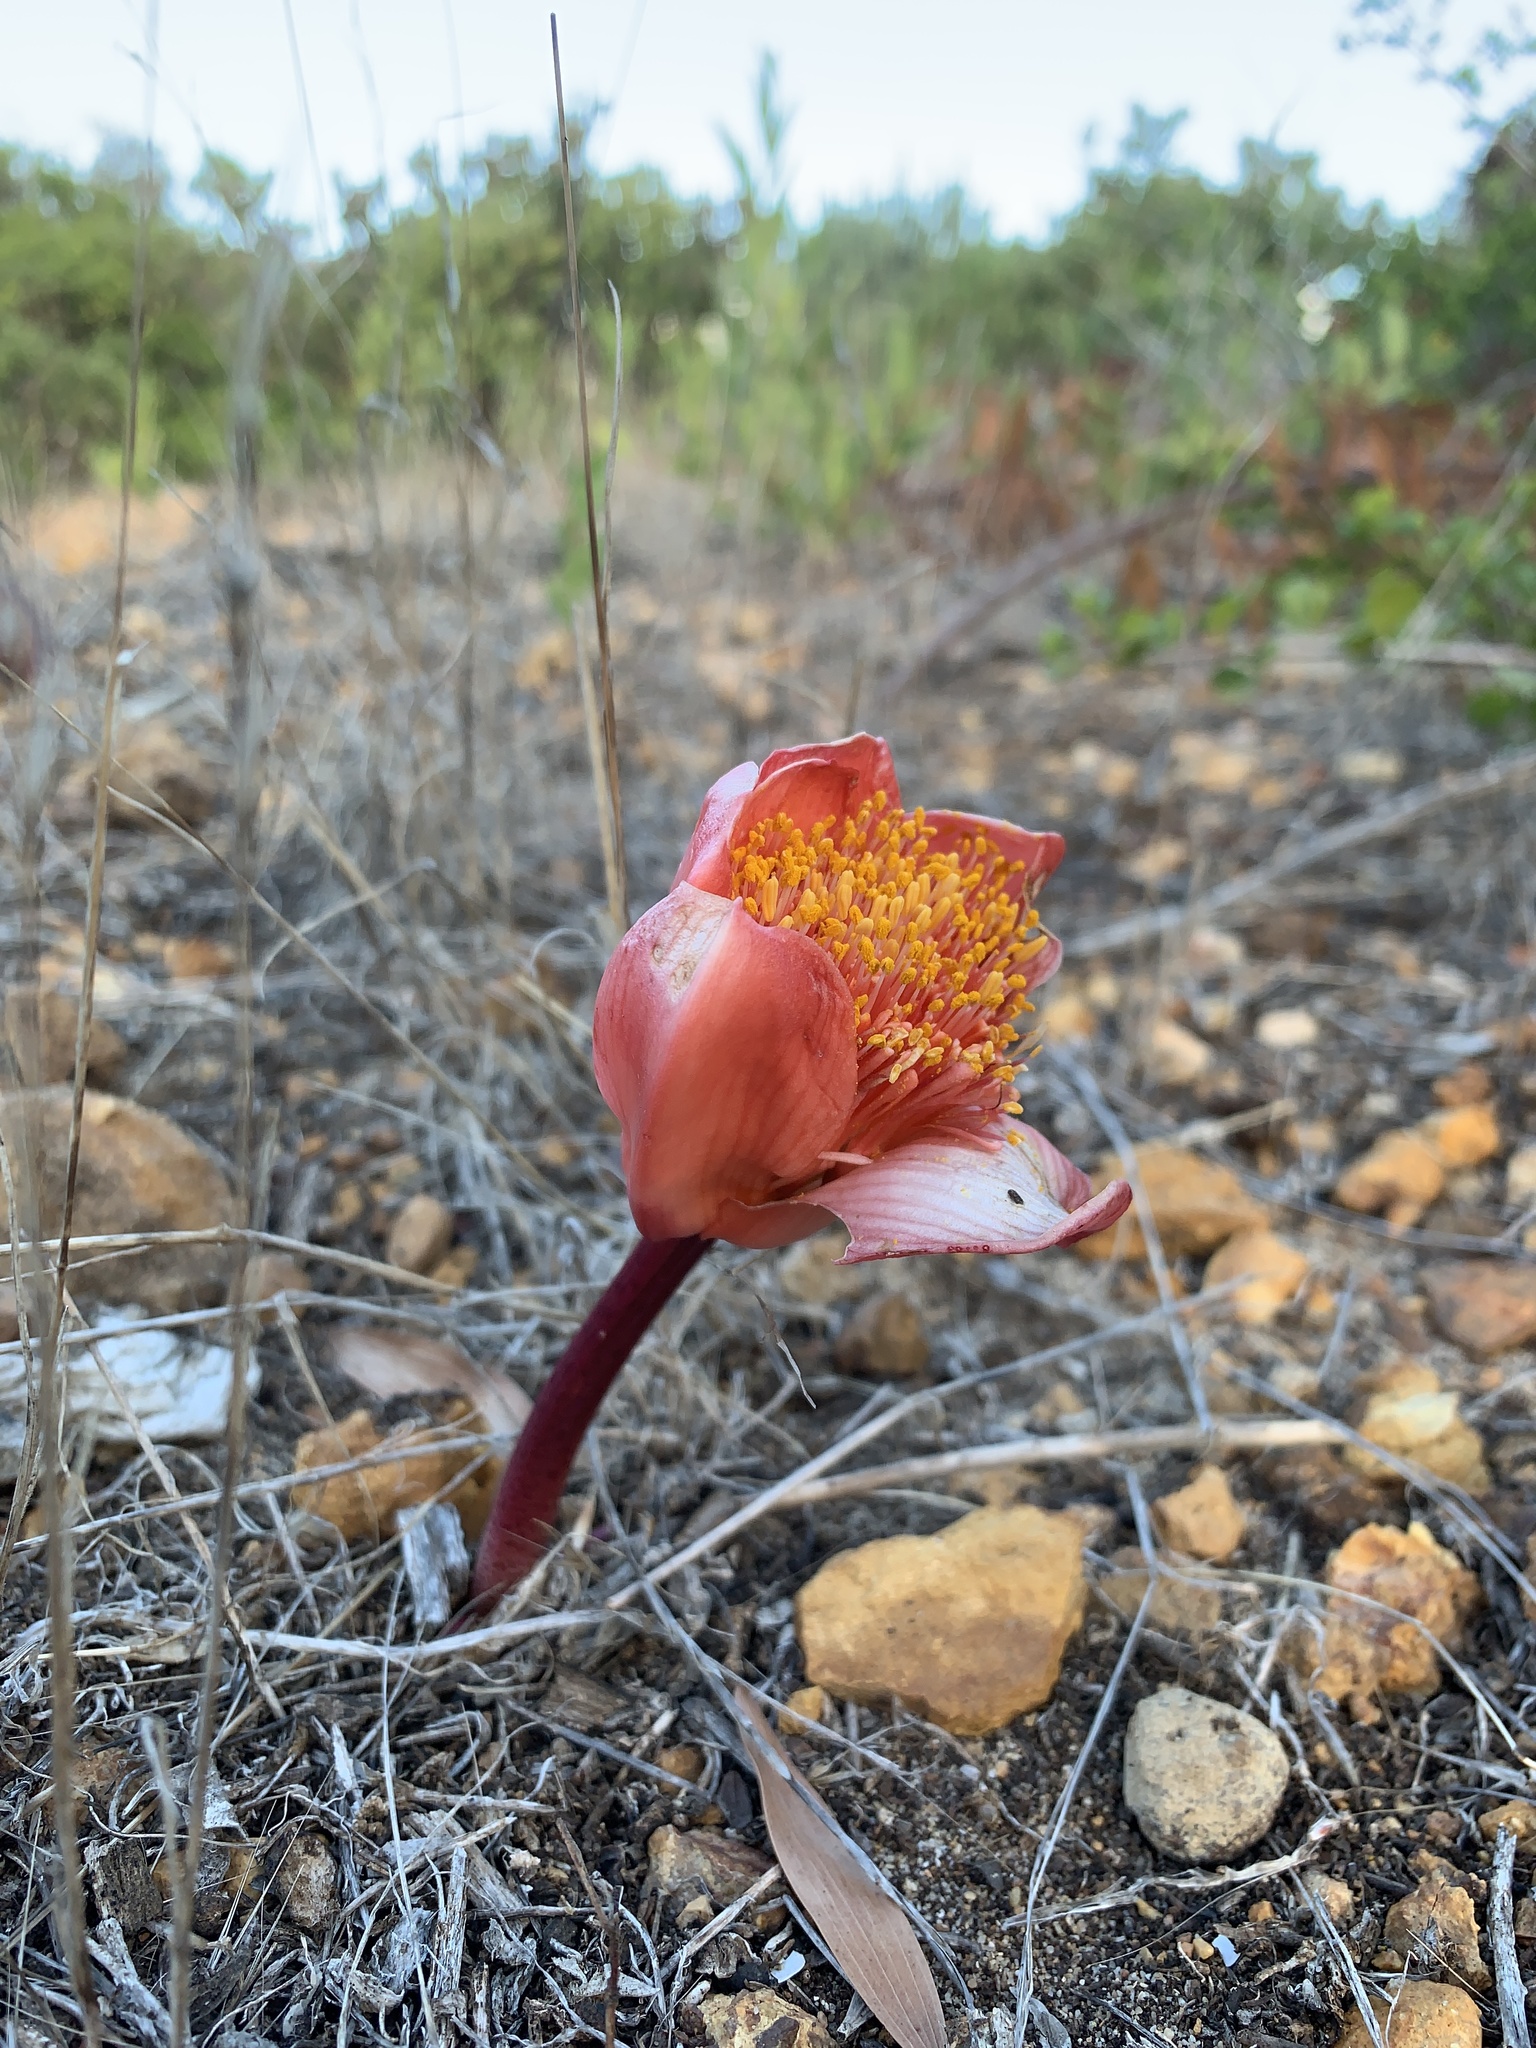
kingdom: Plantae
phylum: Tracheophyta
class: Liliopsida
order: Asparagales
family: Amaryllidaceae
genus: Haemanthus
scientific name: Haemanthus coccineus
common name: Cape-tulip
